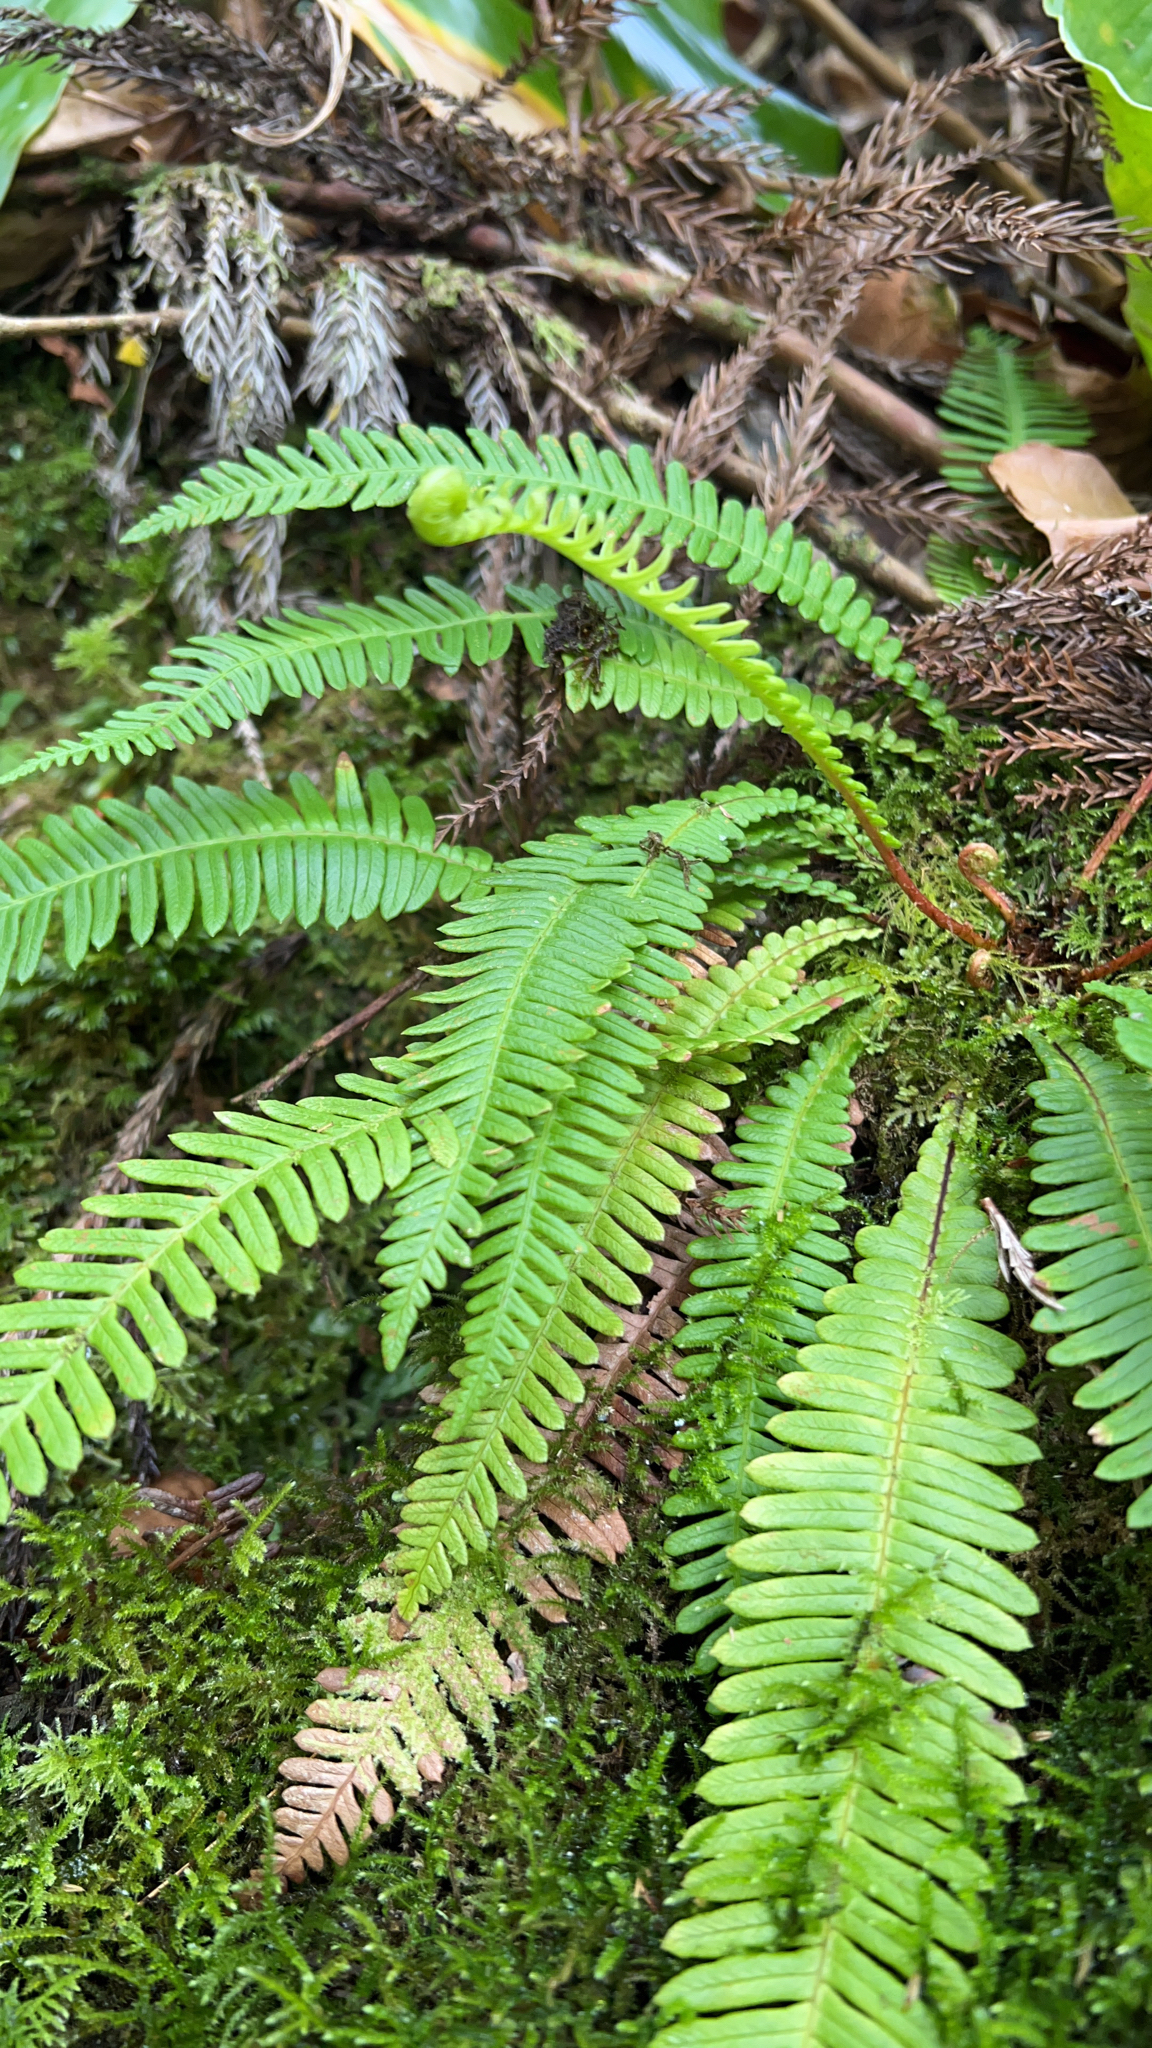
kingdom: Plantae
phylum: Tracheophyta
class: Polypodiopsida
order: Polypodiales
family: Blechnaceae
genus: Struthiopteris
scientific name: Struthiopteris spicant
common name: Deer fern
